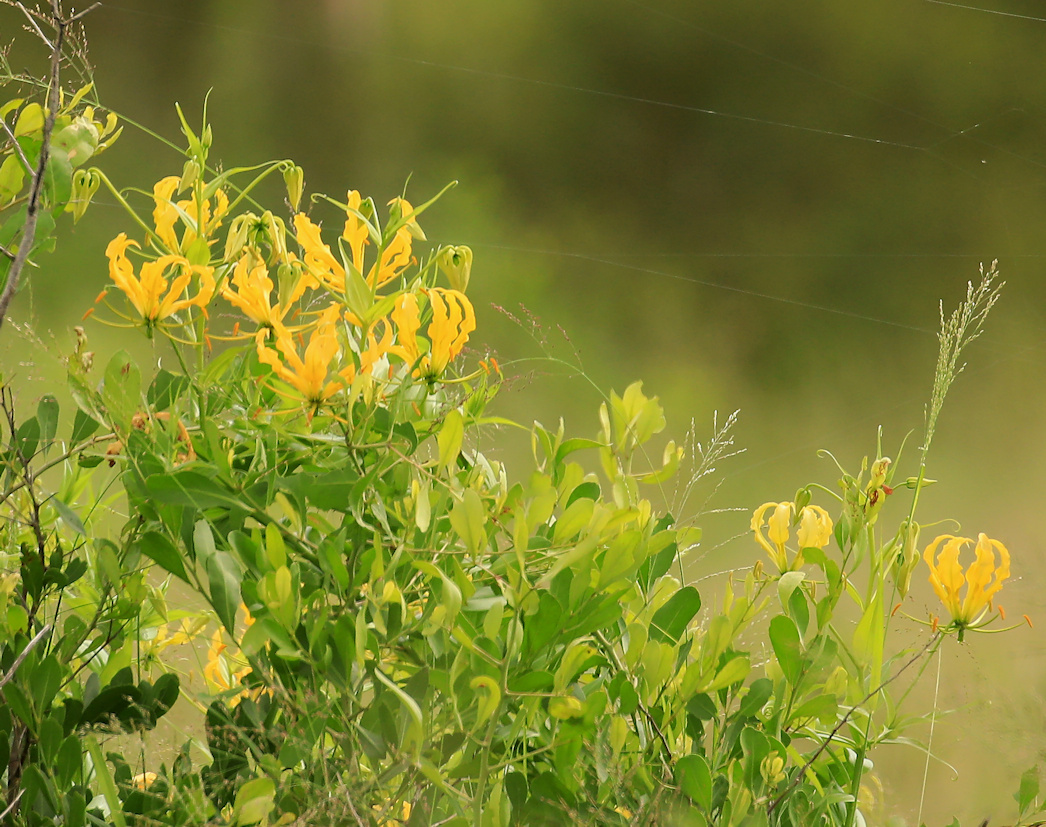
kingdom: Plantae
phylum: Tracheophyta
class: Liliopsida
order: Liliales
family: Colchicaceae
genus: Gloriosa
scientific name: Gloriosa superba
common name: Flame lily
